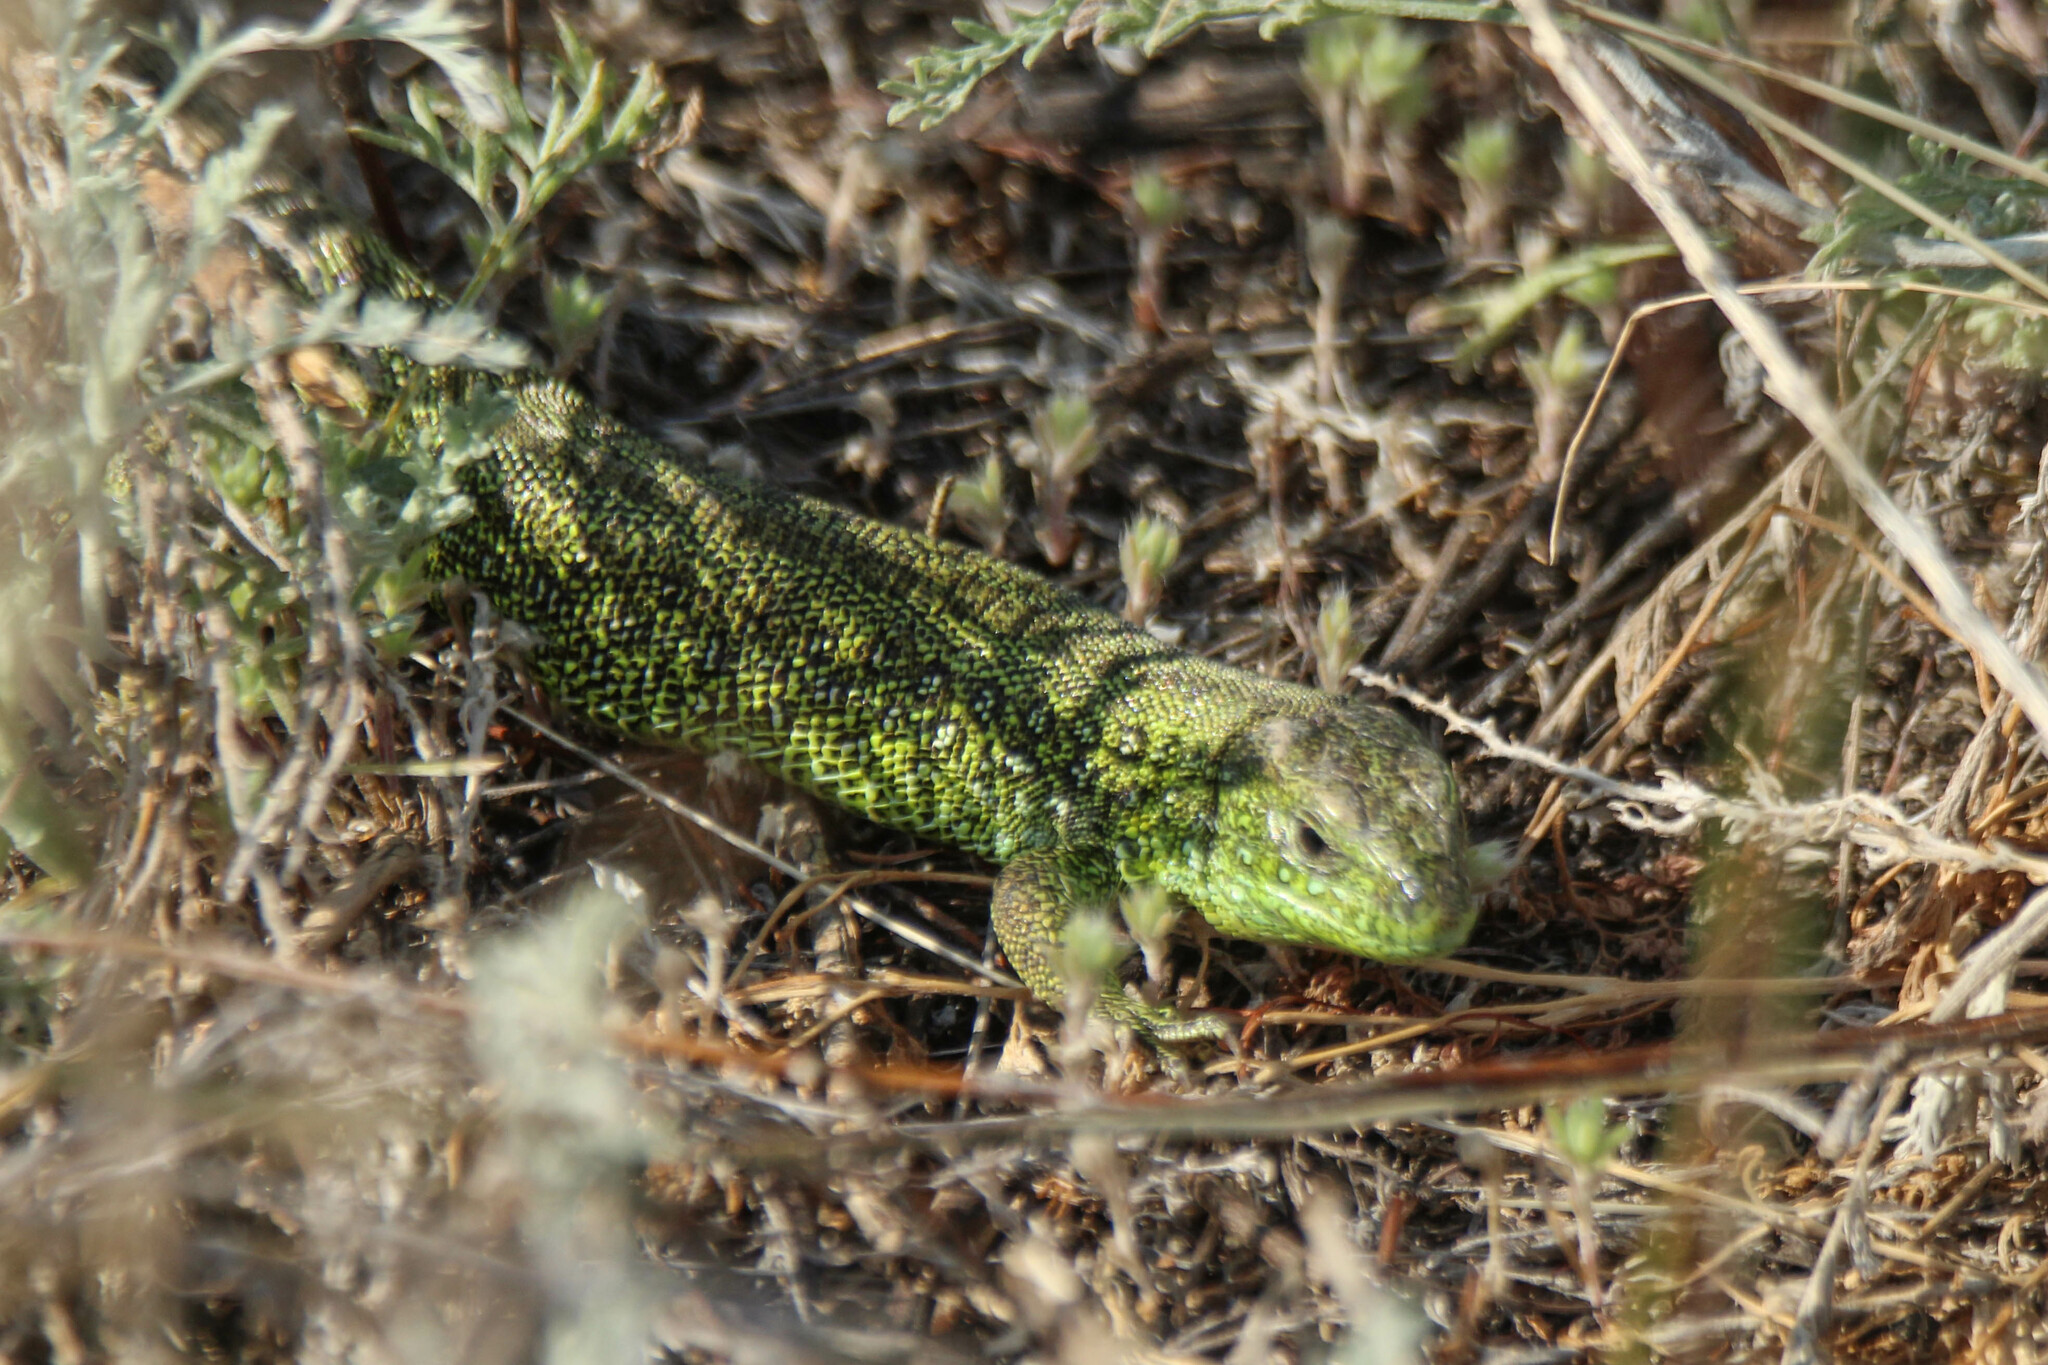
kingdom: Animalia
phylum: Chordata
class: Squamata
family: Lacertidae
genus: Lacerta
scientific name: Lacerta agilis
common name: Sand lizard
